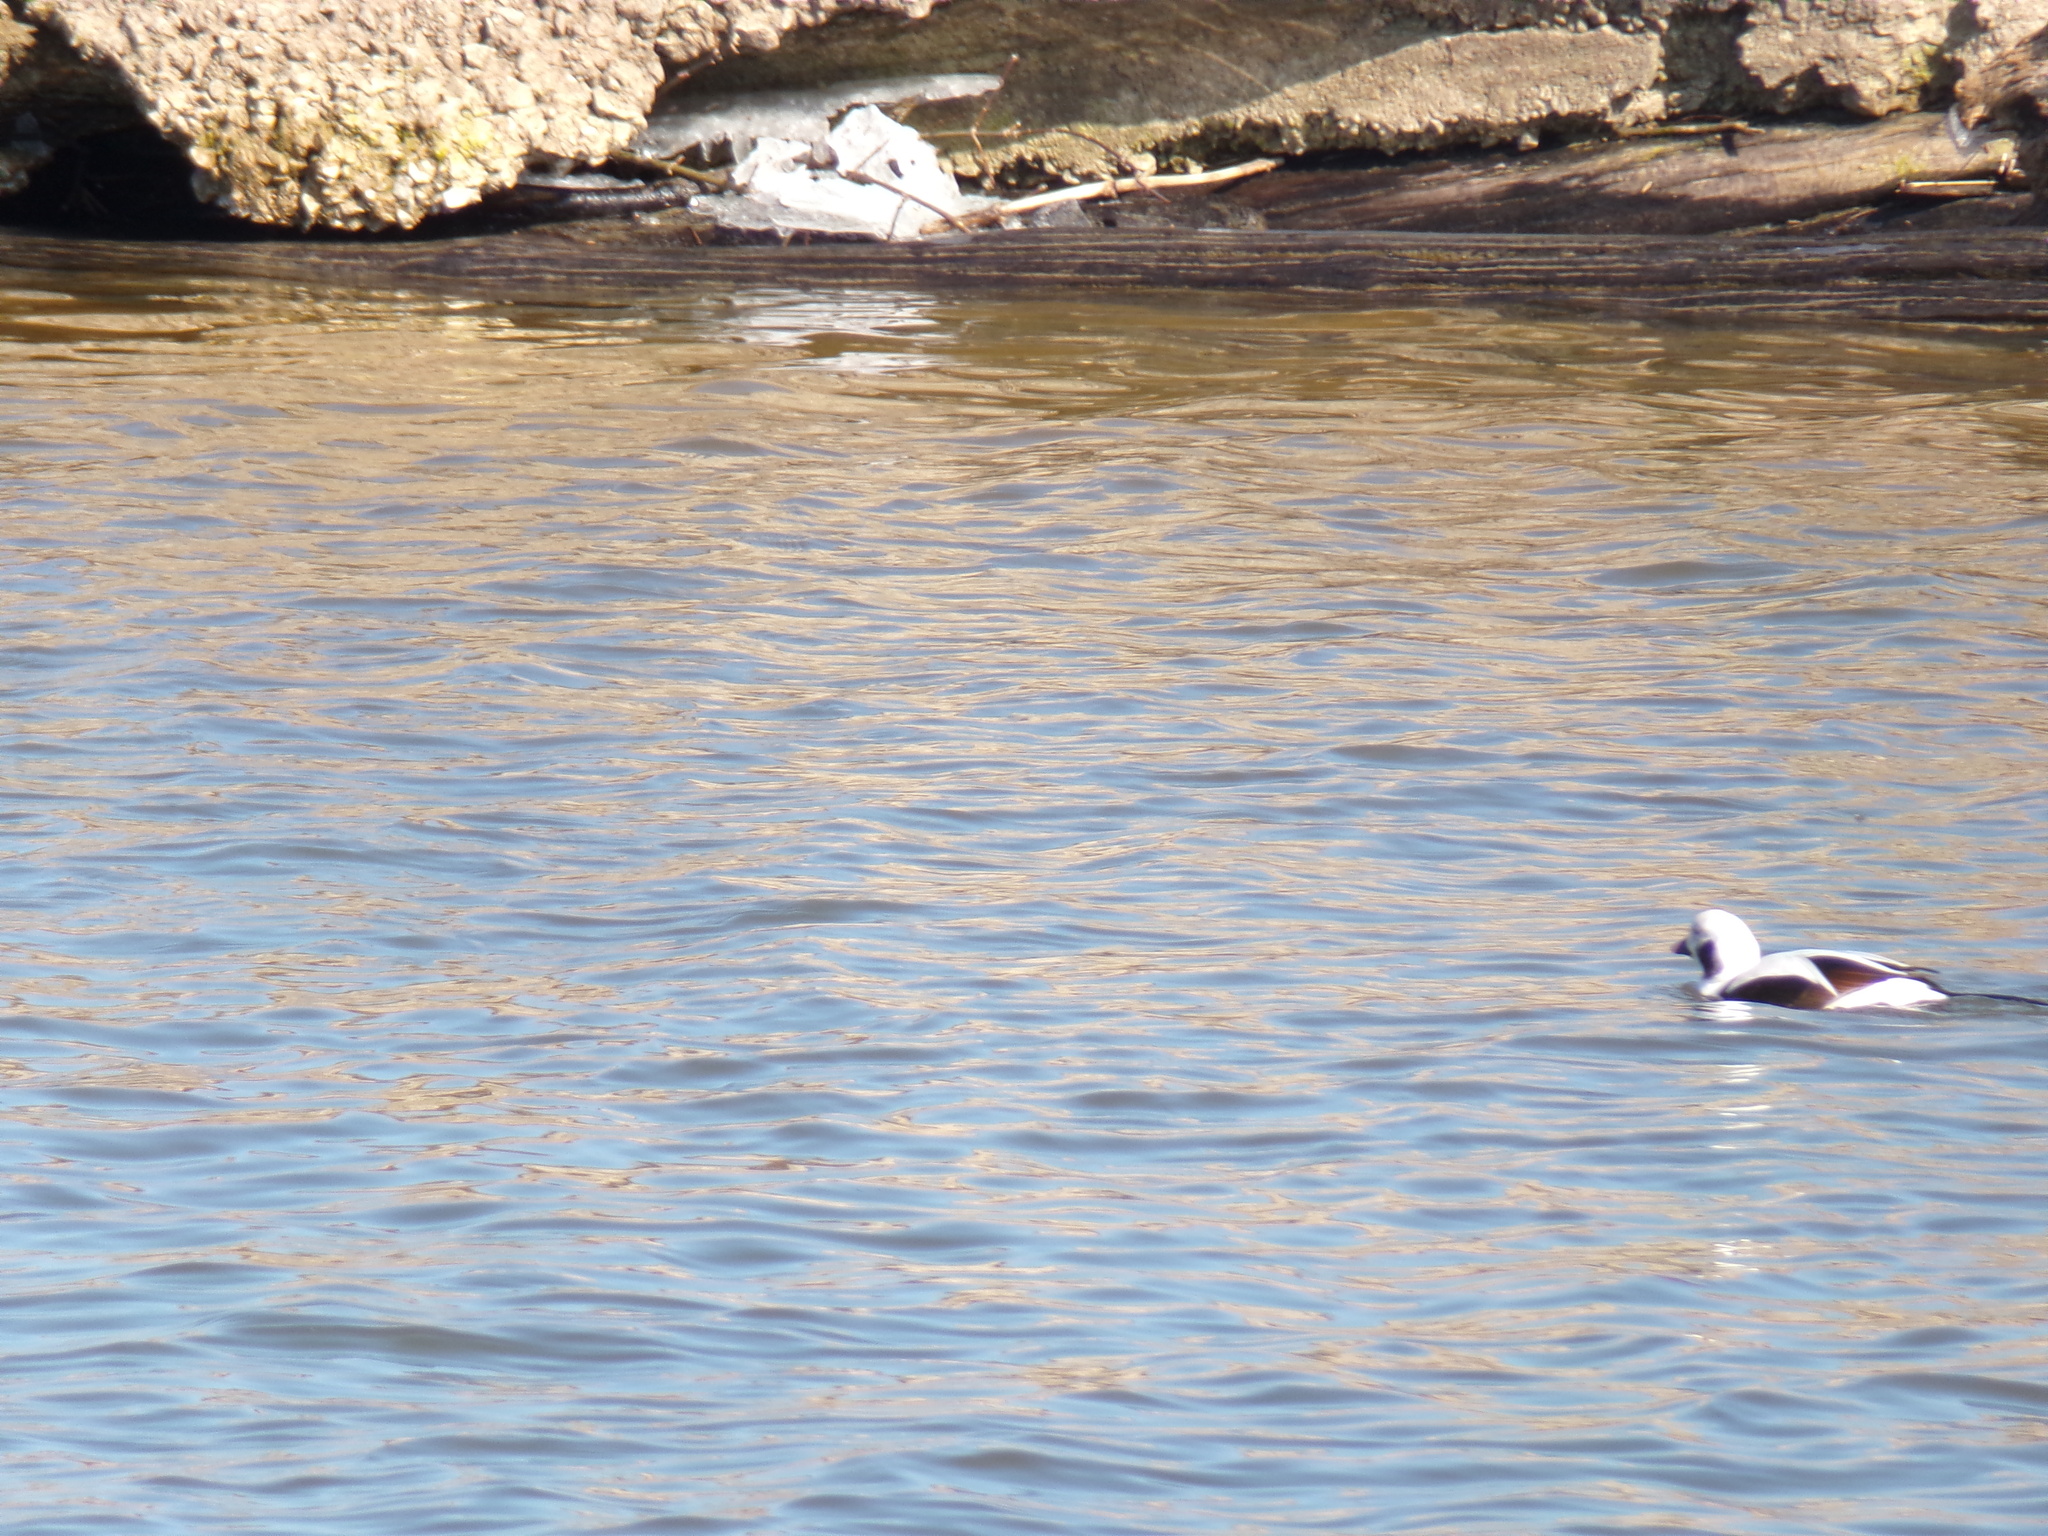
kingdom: Animalia
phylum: Chordata
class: Aves
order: Anseriformes
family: Anatidae
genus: Clangula
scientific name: Clangula hyemalis
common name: Long-tailed duck
